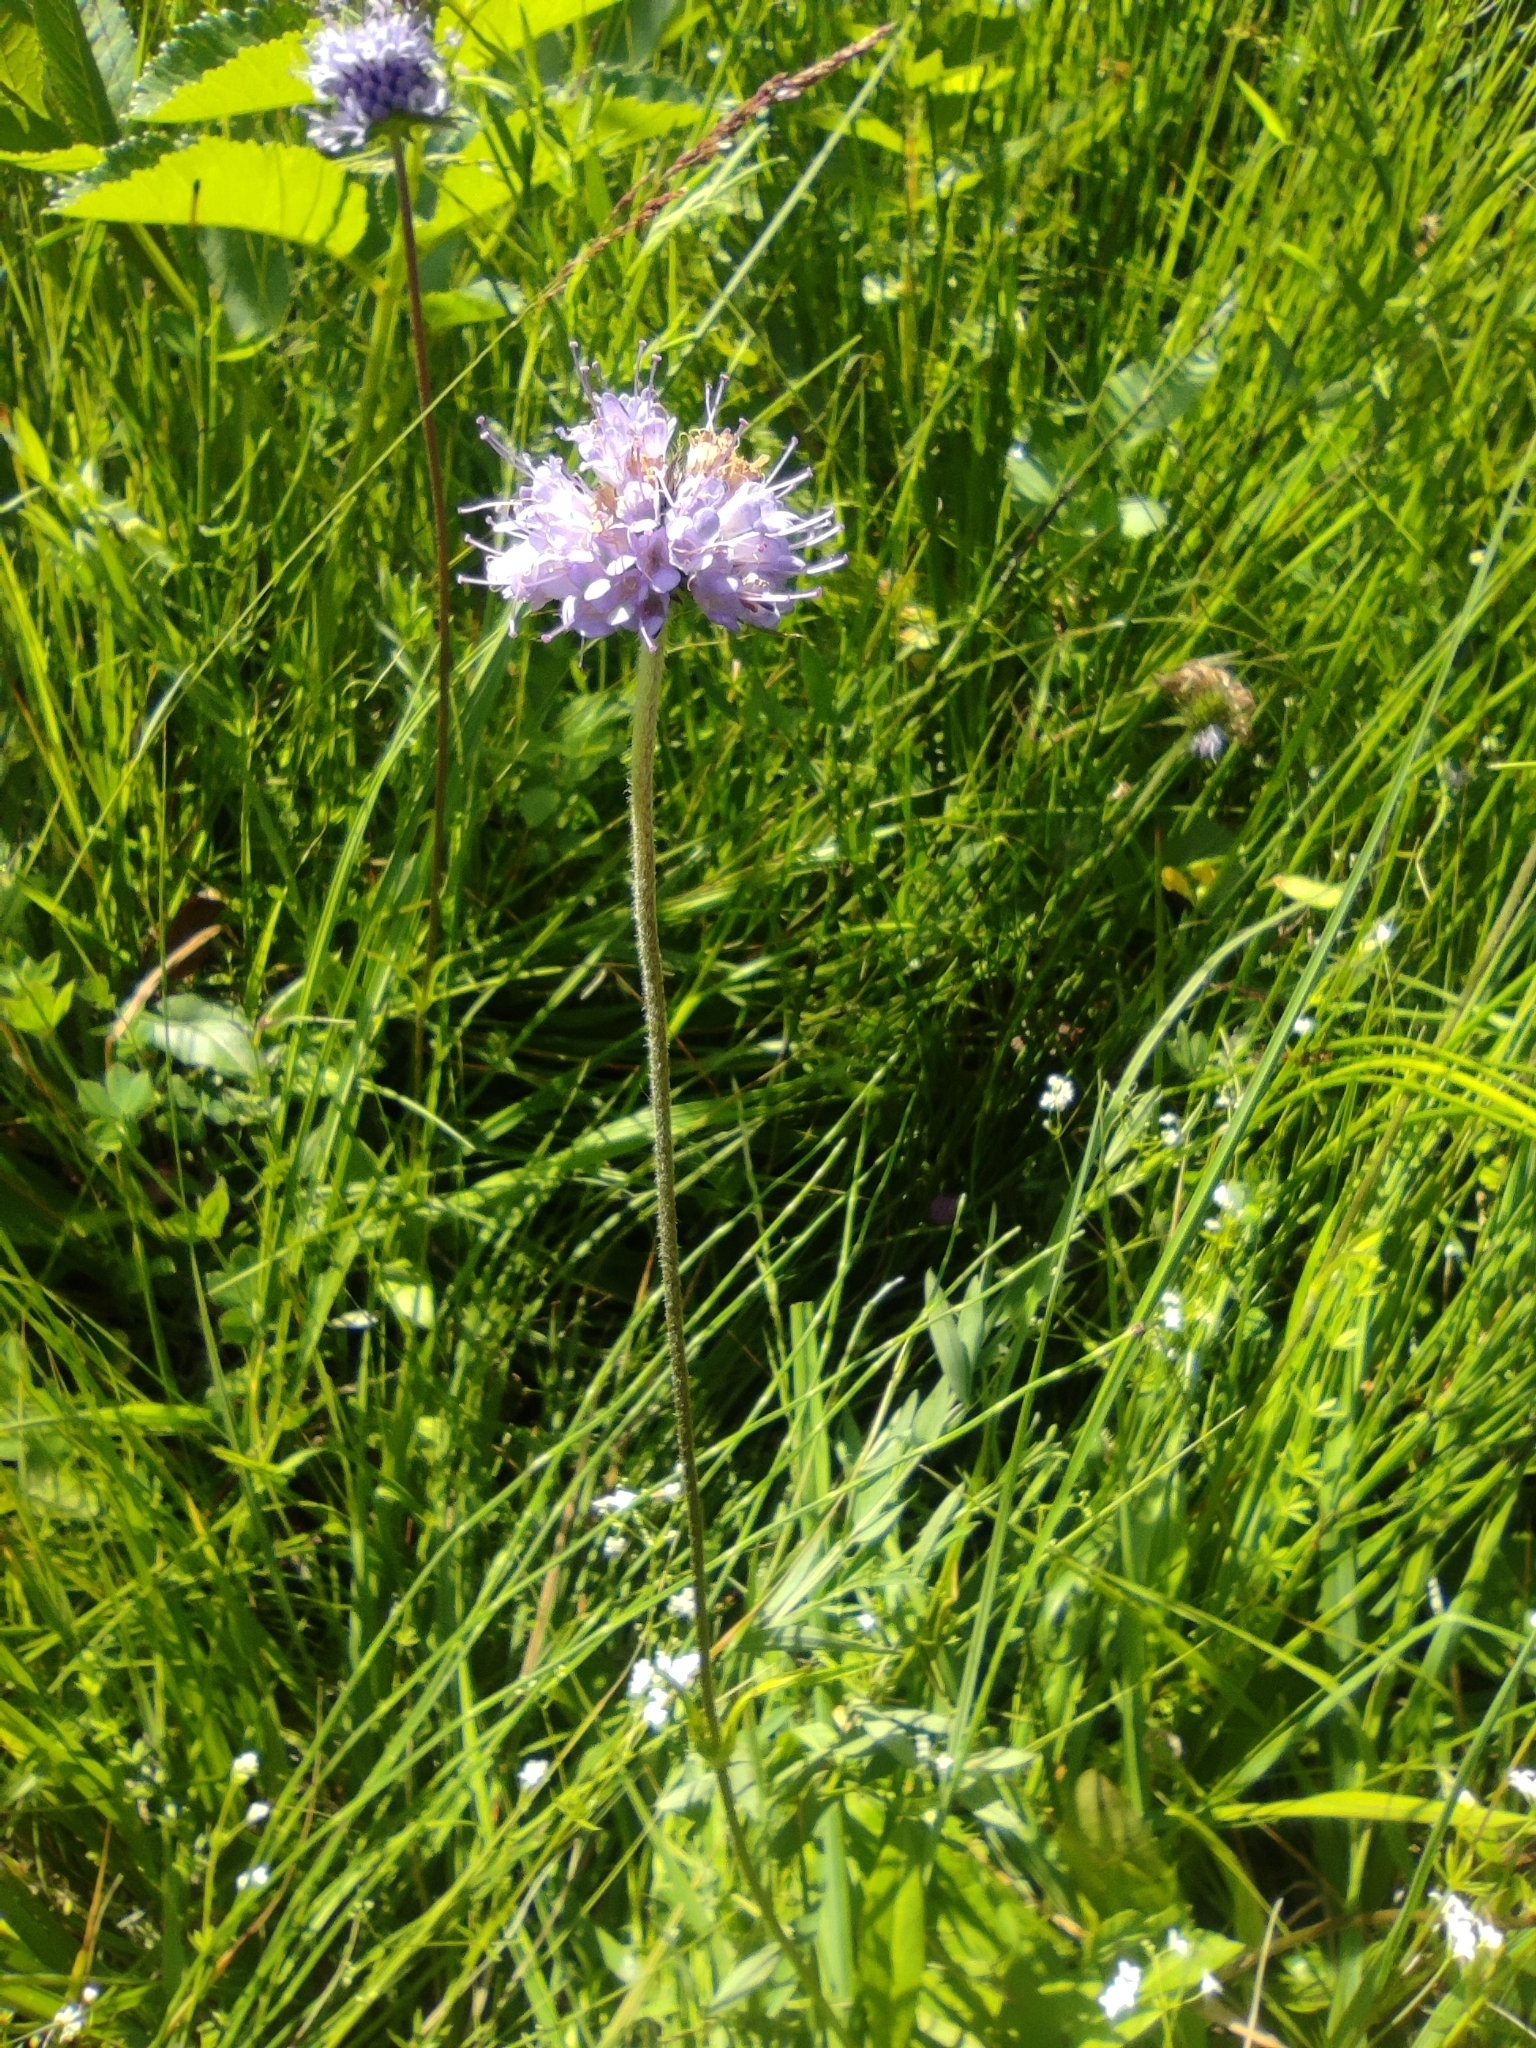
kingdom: Plantae
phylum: Tracheophyta
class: Magnoliopsida
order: Dipsacales
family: Caprifoliaceae
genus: Succisa
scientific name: Succisa pratensis
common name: Devil's-bit
